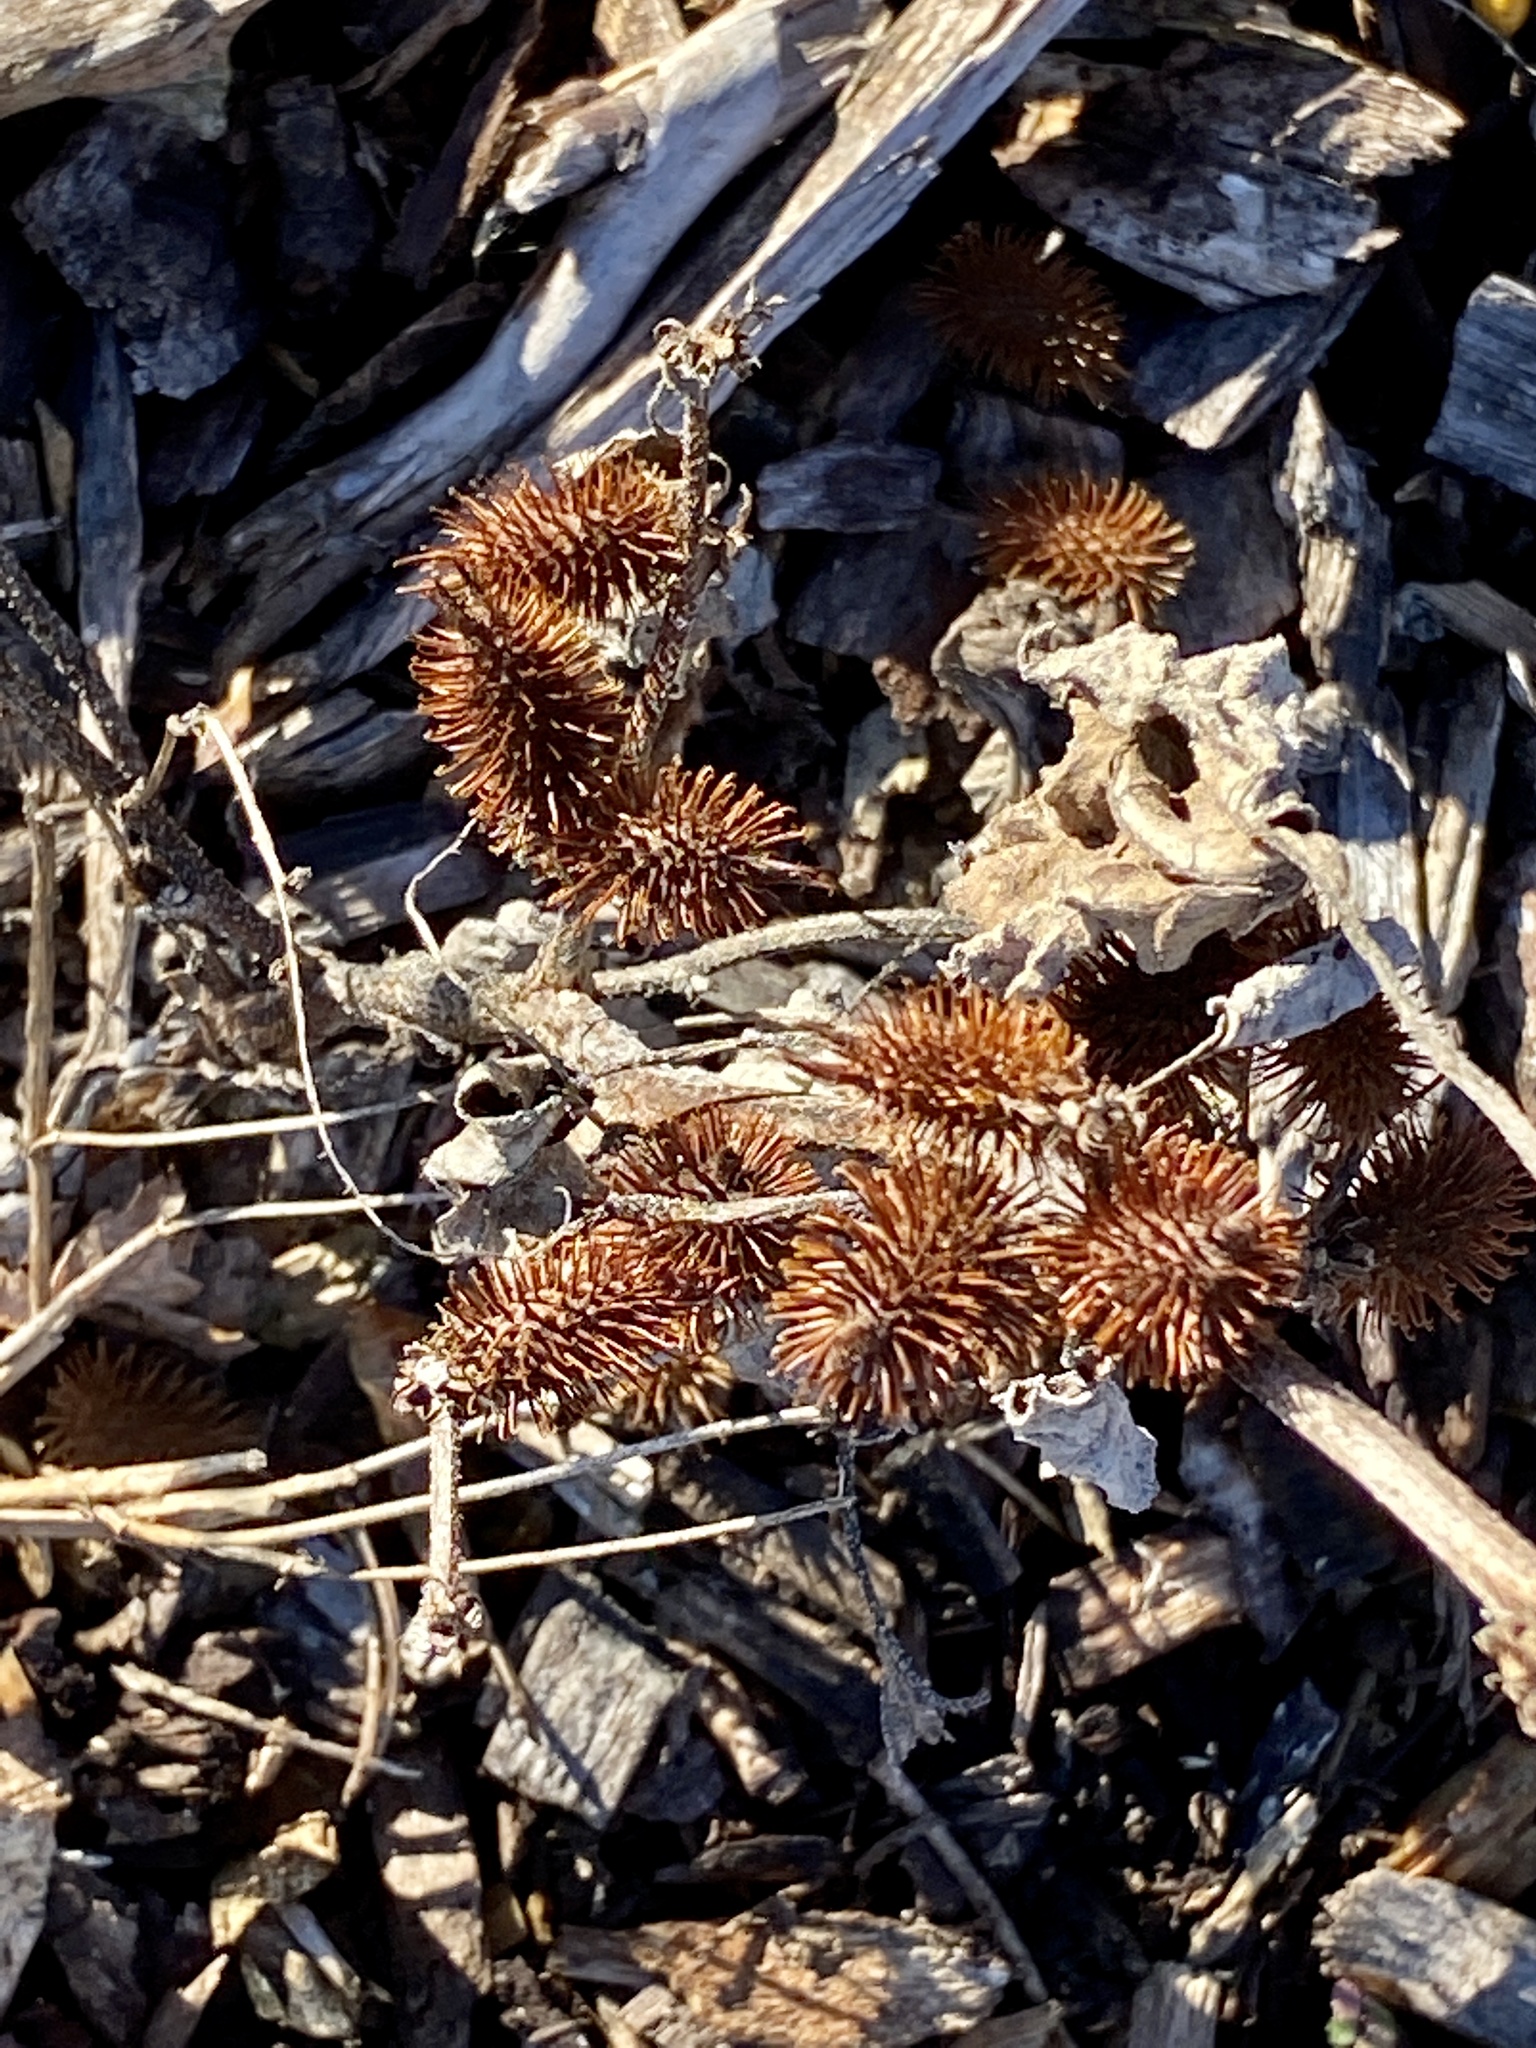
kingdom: Plantae
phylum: Tracheophyta
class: Magnoliopsida
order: Asterales
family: Asteraceae
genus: Xanthium
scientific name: Xanthium strumarium
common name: Rough cocklebur
